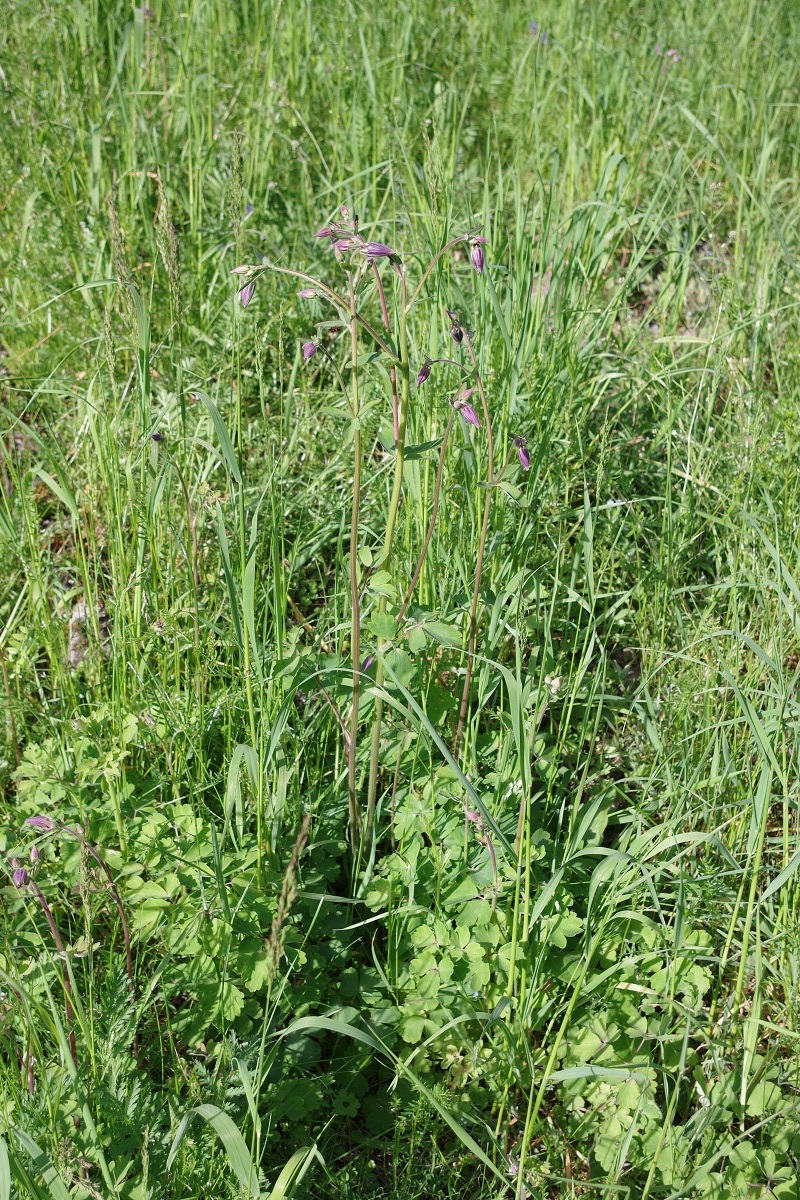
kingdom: Plantae
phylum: Tracheophyta
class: Magnoliopsida
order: Ranunculales
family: Ranunculaceae
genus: Aquilegia
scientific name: Aquilegia vulgaris
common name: Columbine
